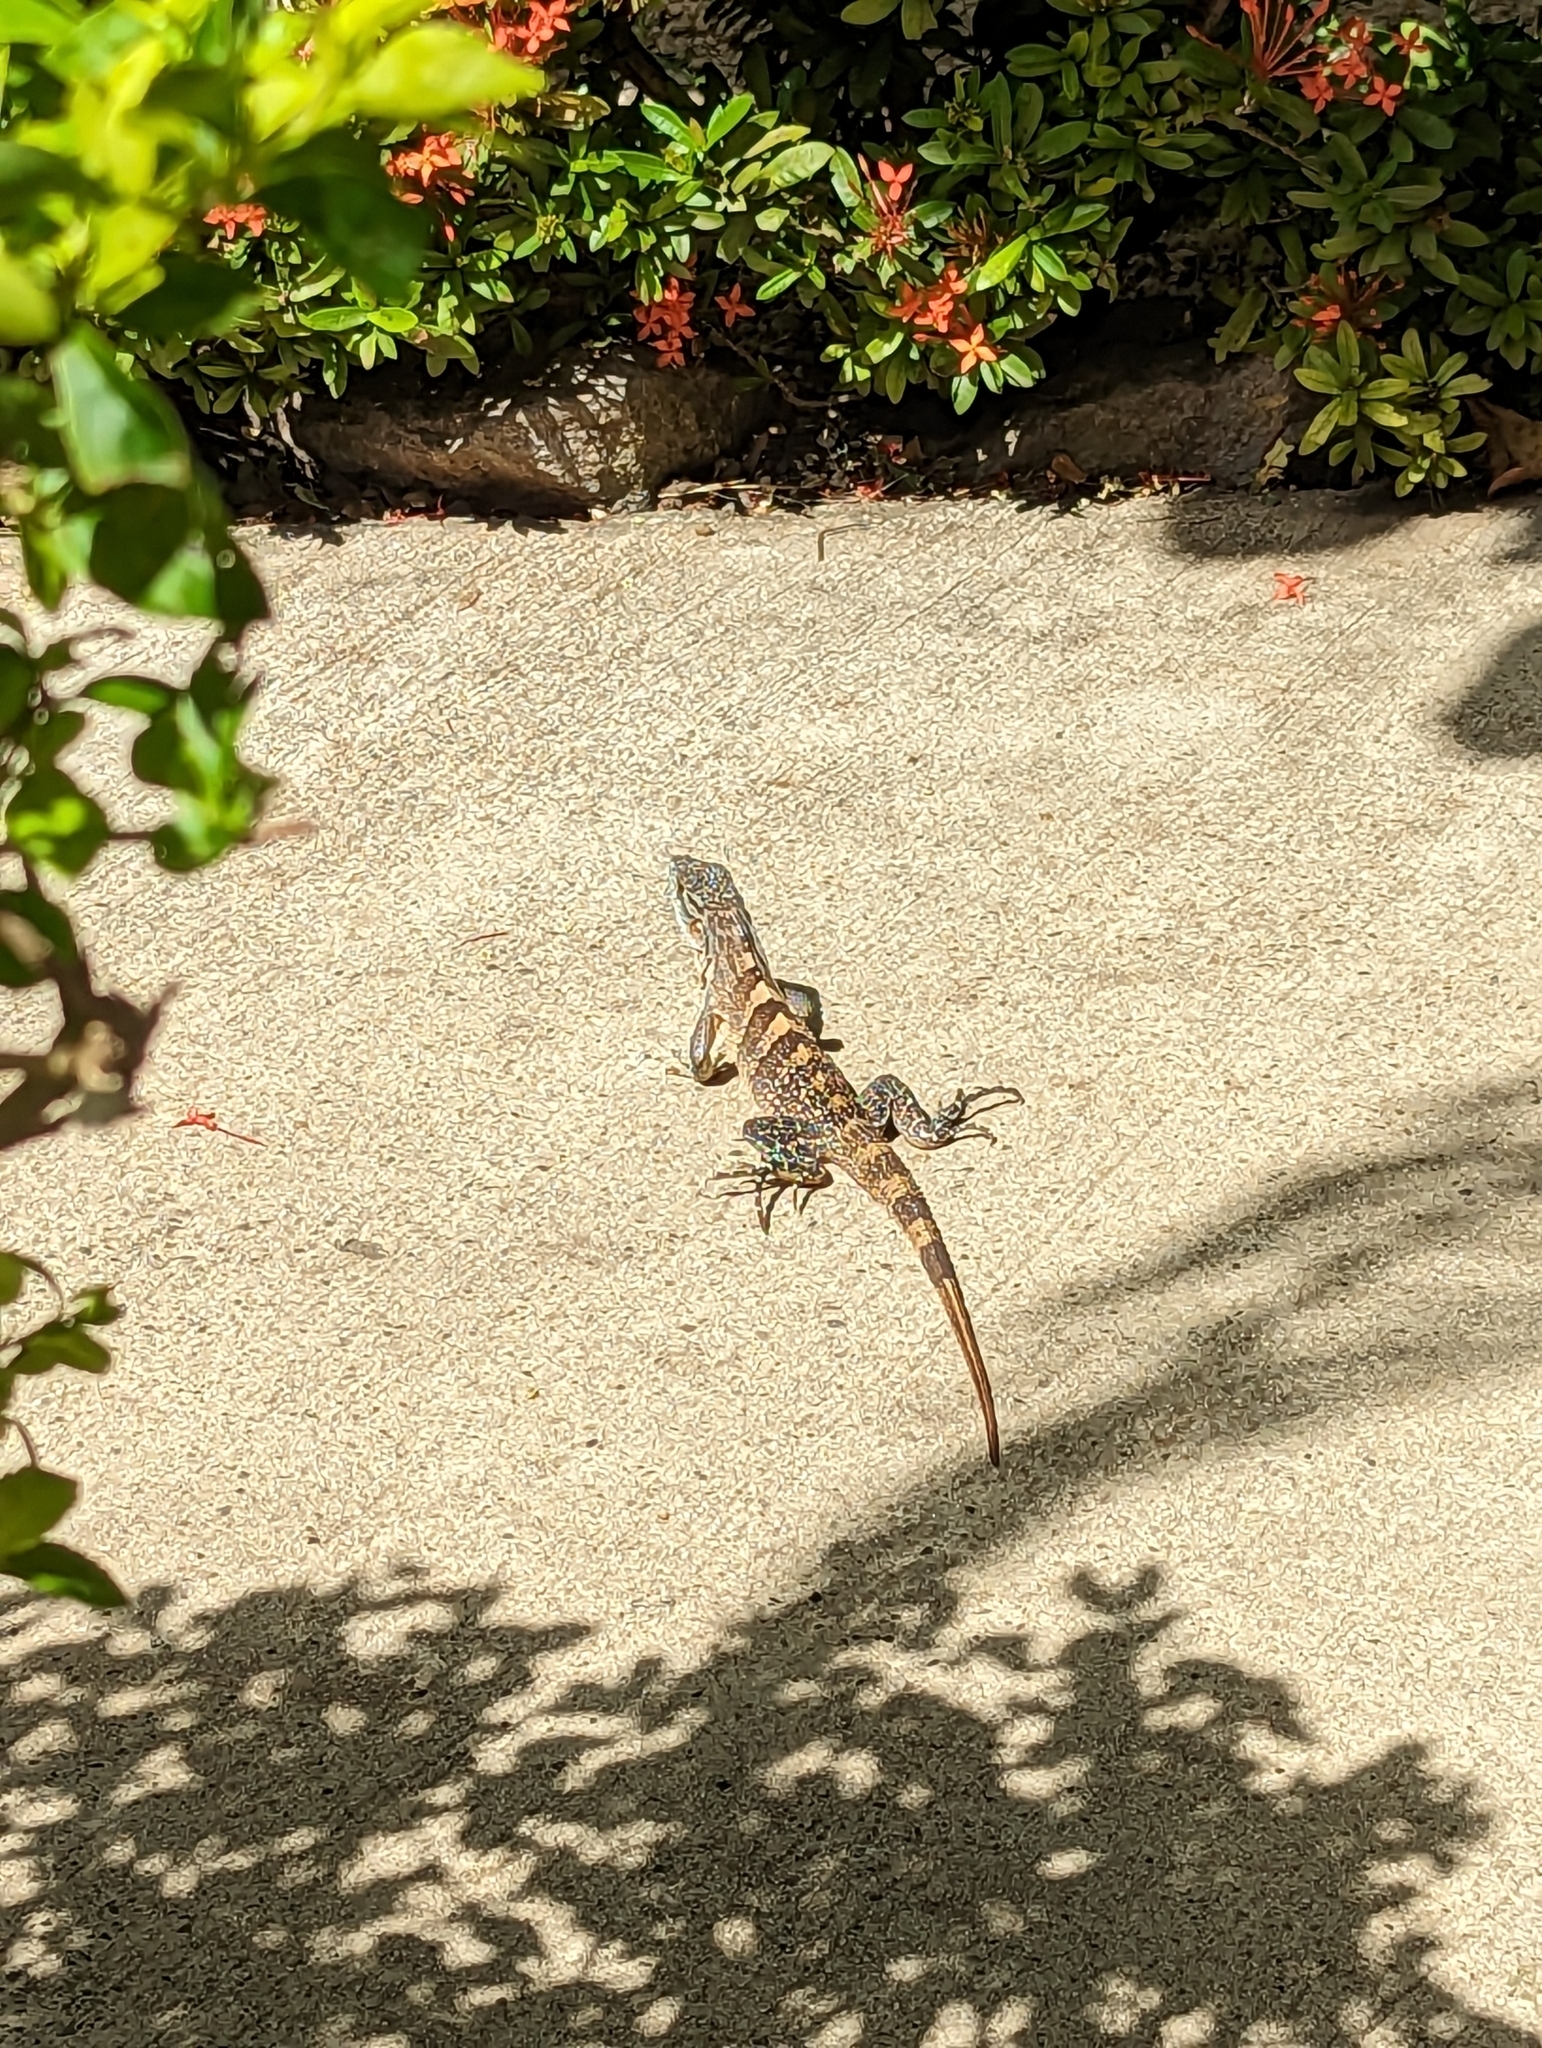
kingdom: Animalia
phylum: Chordata
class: Squamata
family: Iguanidae
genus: Ctenosaura
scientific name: Ctenosaura similis
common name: Black spiny-tailed iguana
